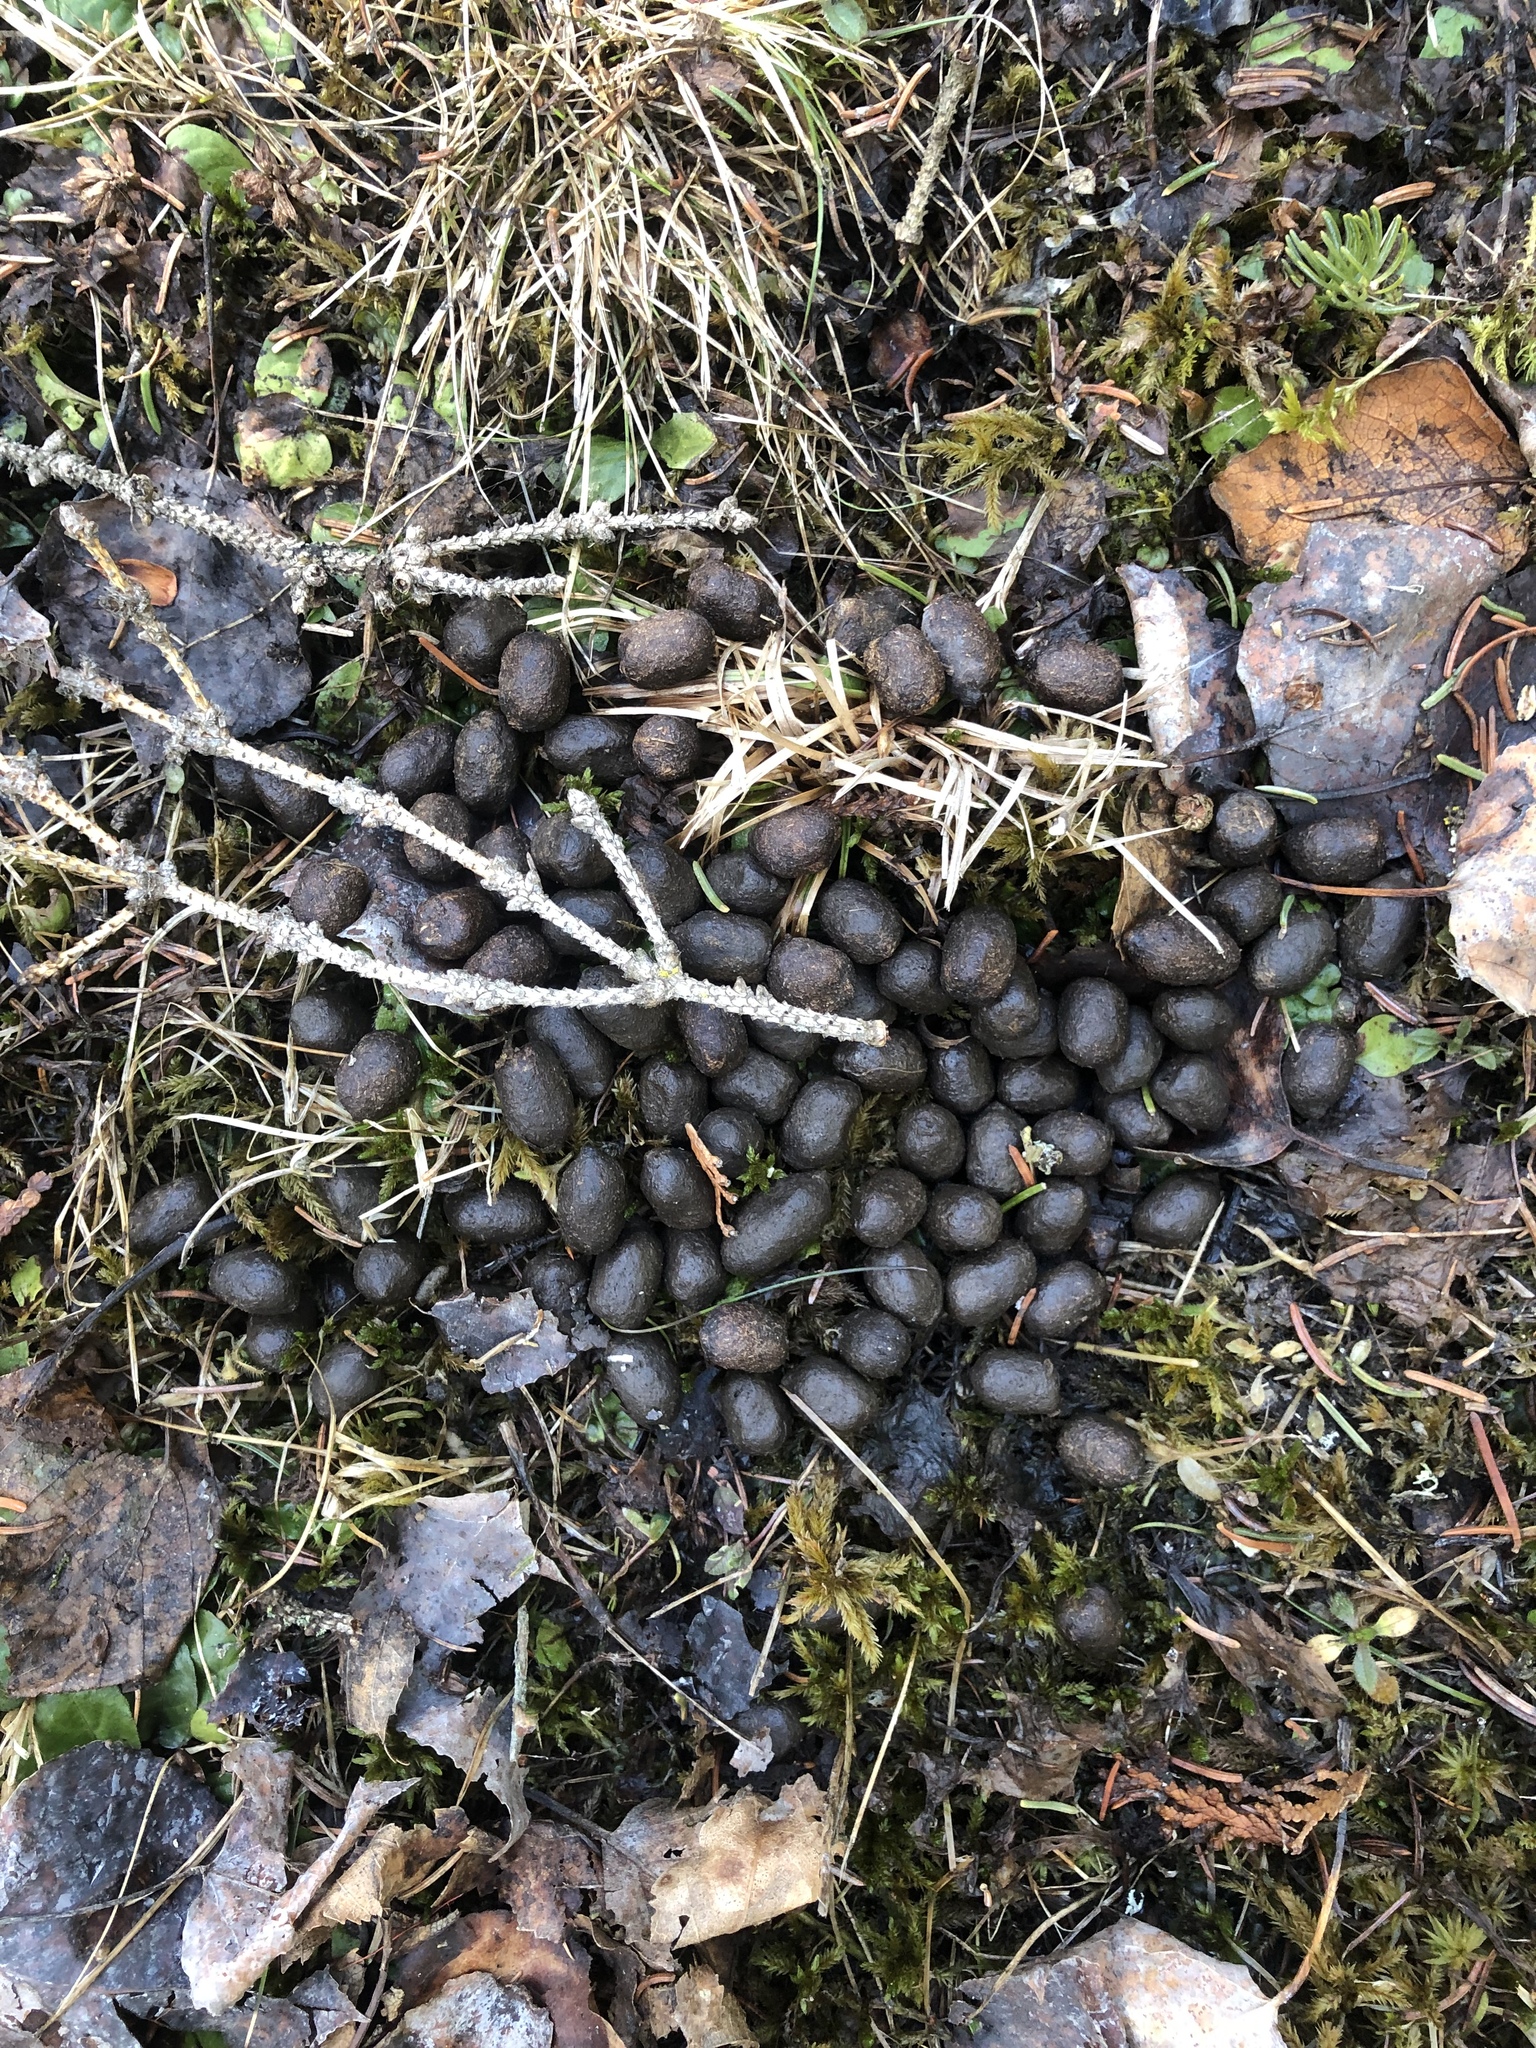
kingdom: Animalia
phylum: Chordata
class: Mammalia
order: Artiodactyla
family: Cervidae
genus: Odocoileus
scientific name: Odocoileus virginianus
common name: White-tailed deer
